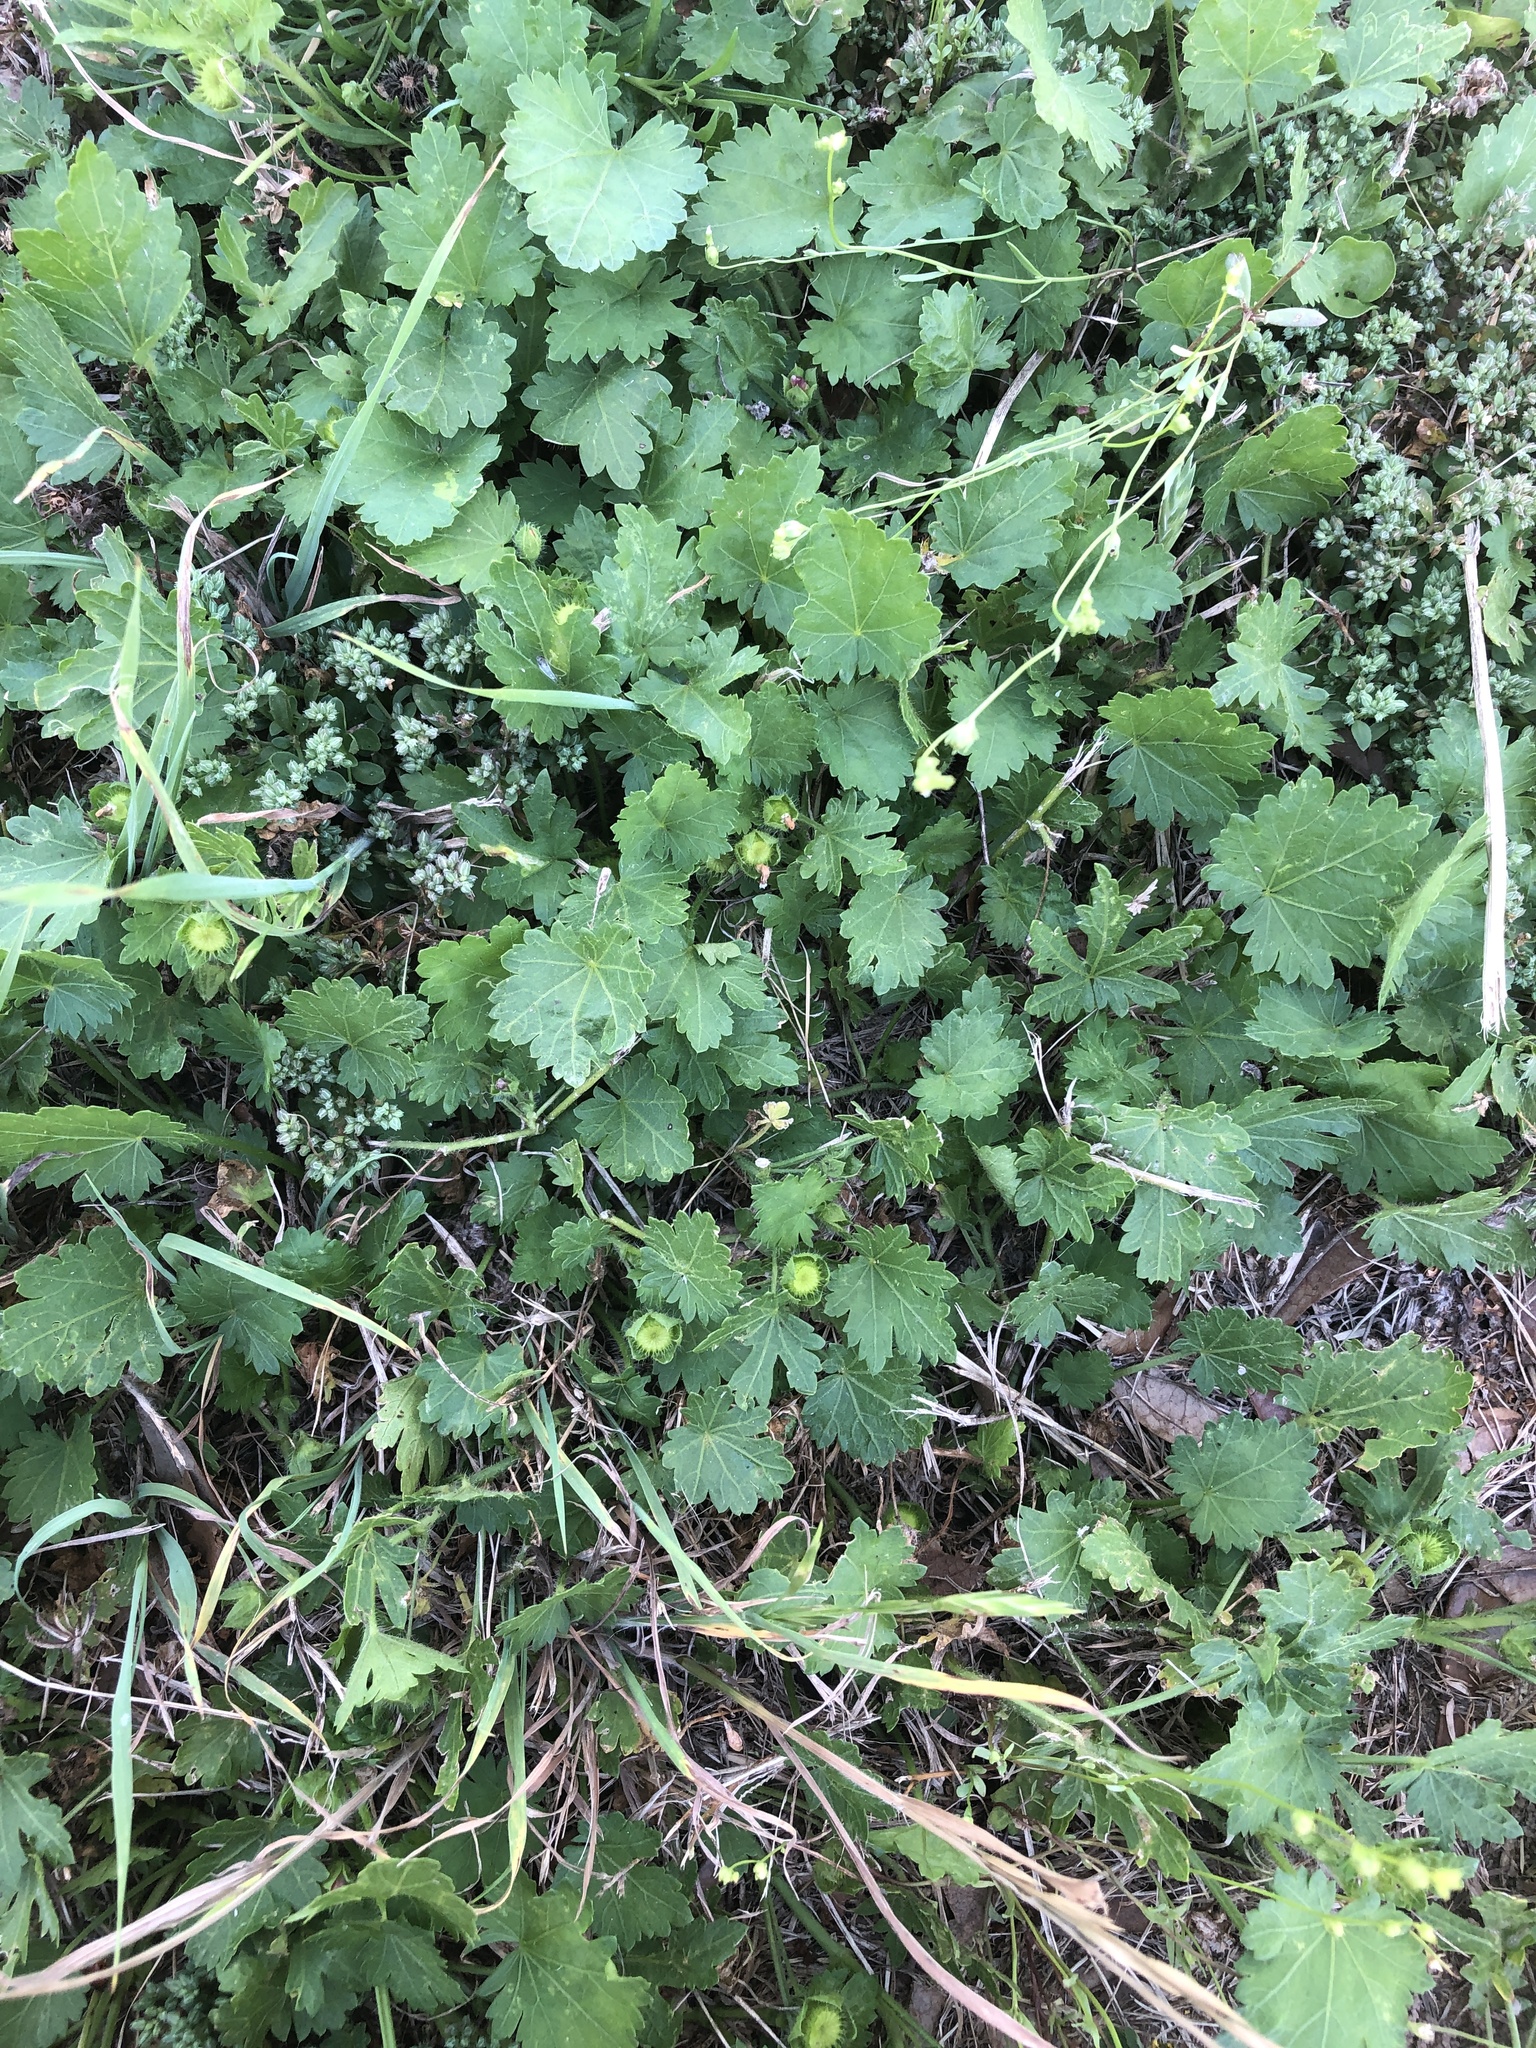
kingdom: Plantae
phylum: Tracheophyta
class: Magnoliopsida
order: Malvales
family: Malvaceae
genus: Modiola
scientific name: Modiola caroliniana
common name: Carolina bristlemallow
